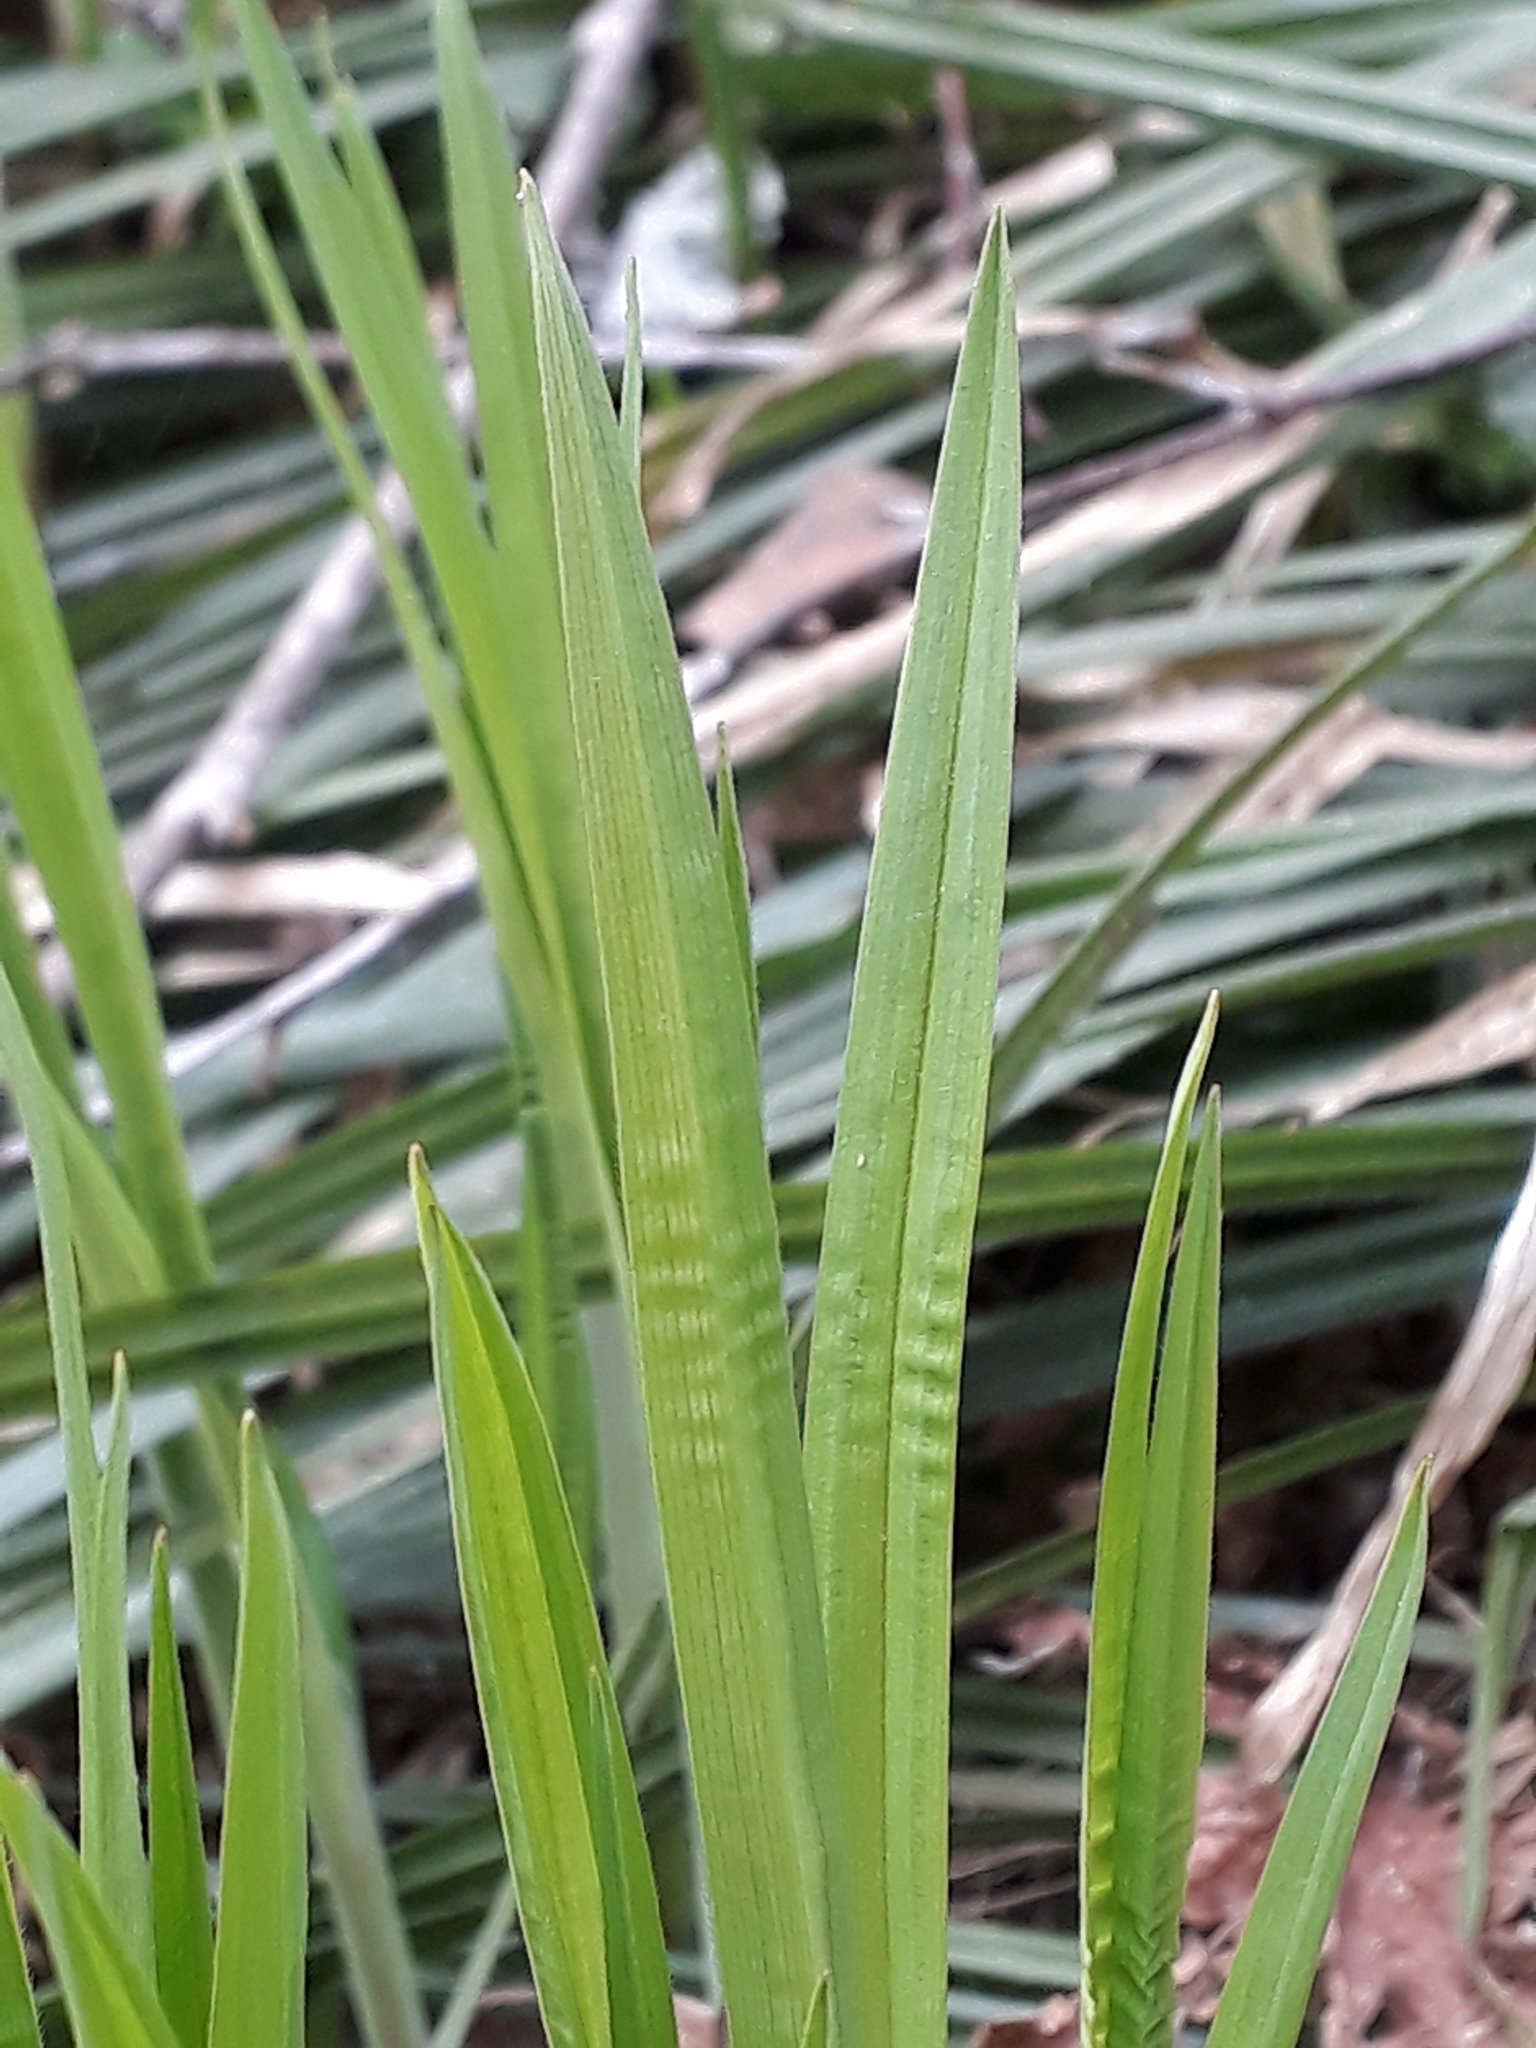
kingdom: Plantae
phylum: Tracheophyta
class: Liliopsida
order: Poales
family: Cyperaceae
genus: Carex
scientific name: Carex pilosa
